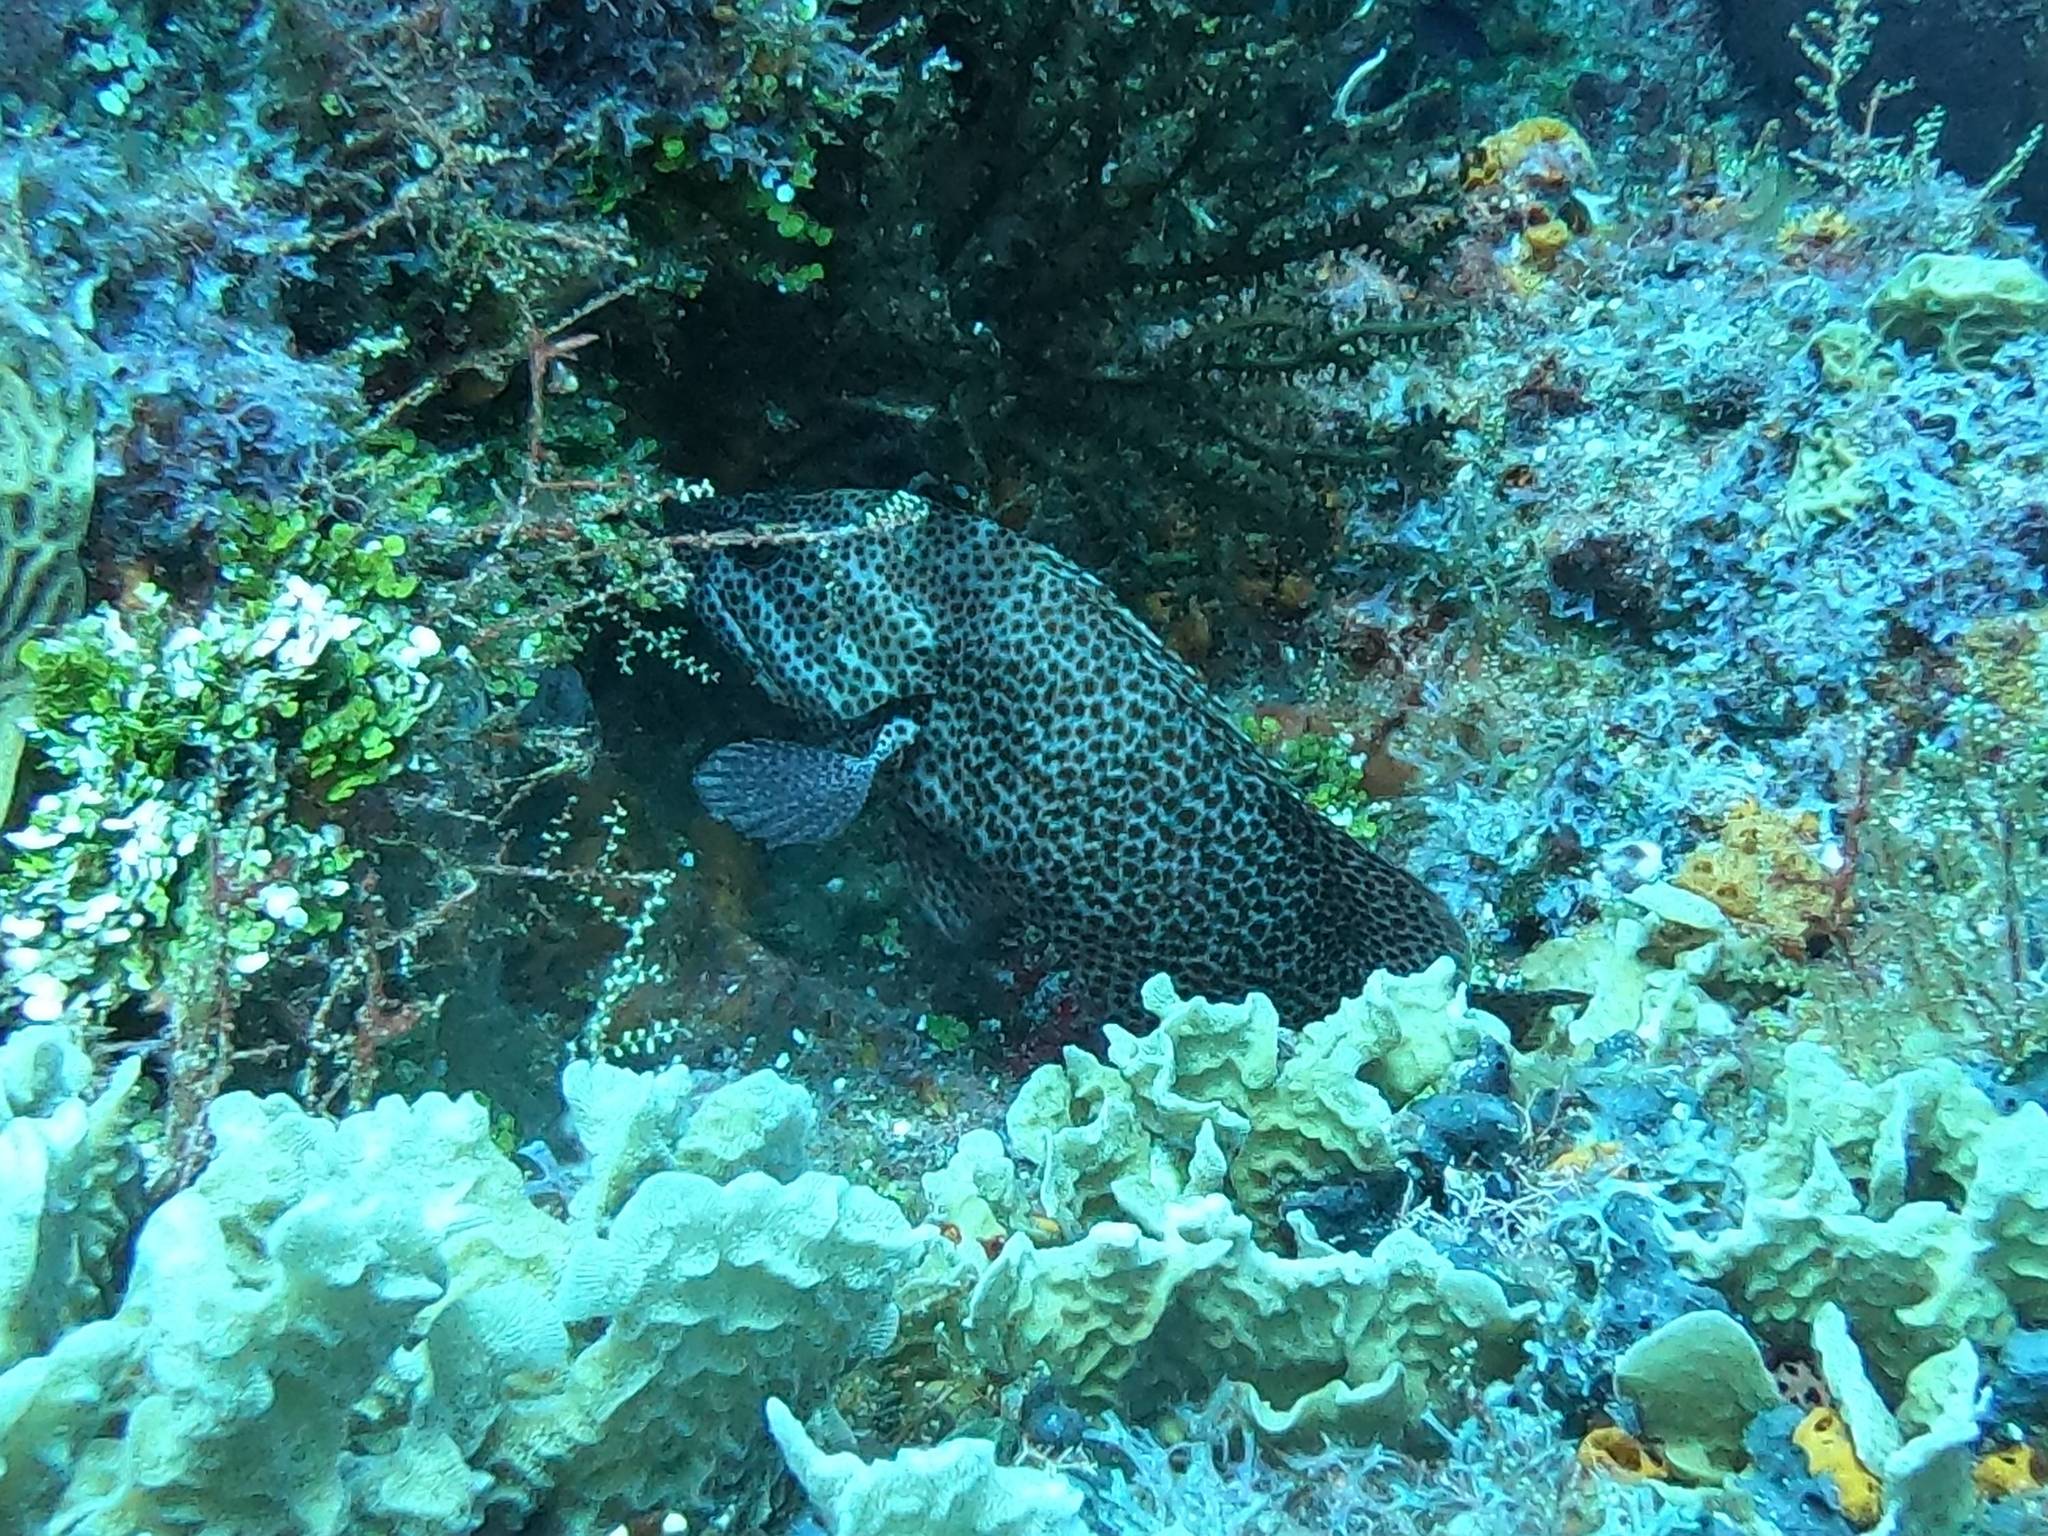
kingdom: Animalia
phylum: Chordata
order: Perciformes
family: Serranidae
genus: Cephalopholis
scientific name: Cephalopholis cruentata
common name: Graysby
